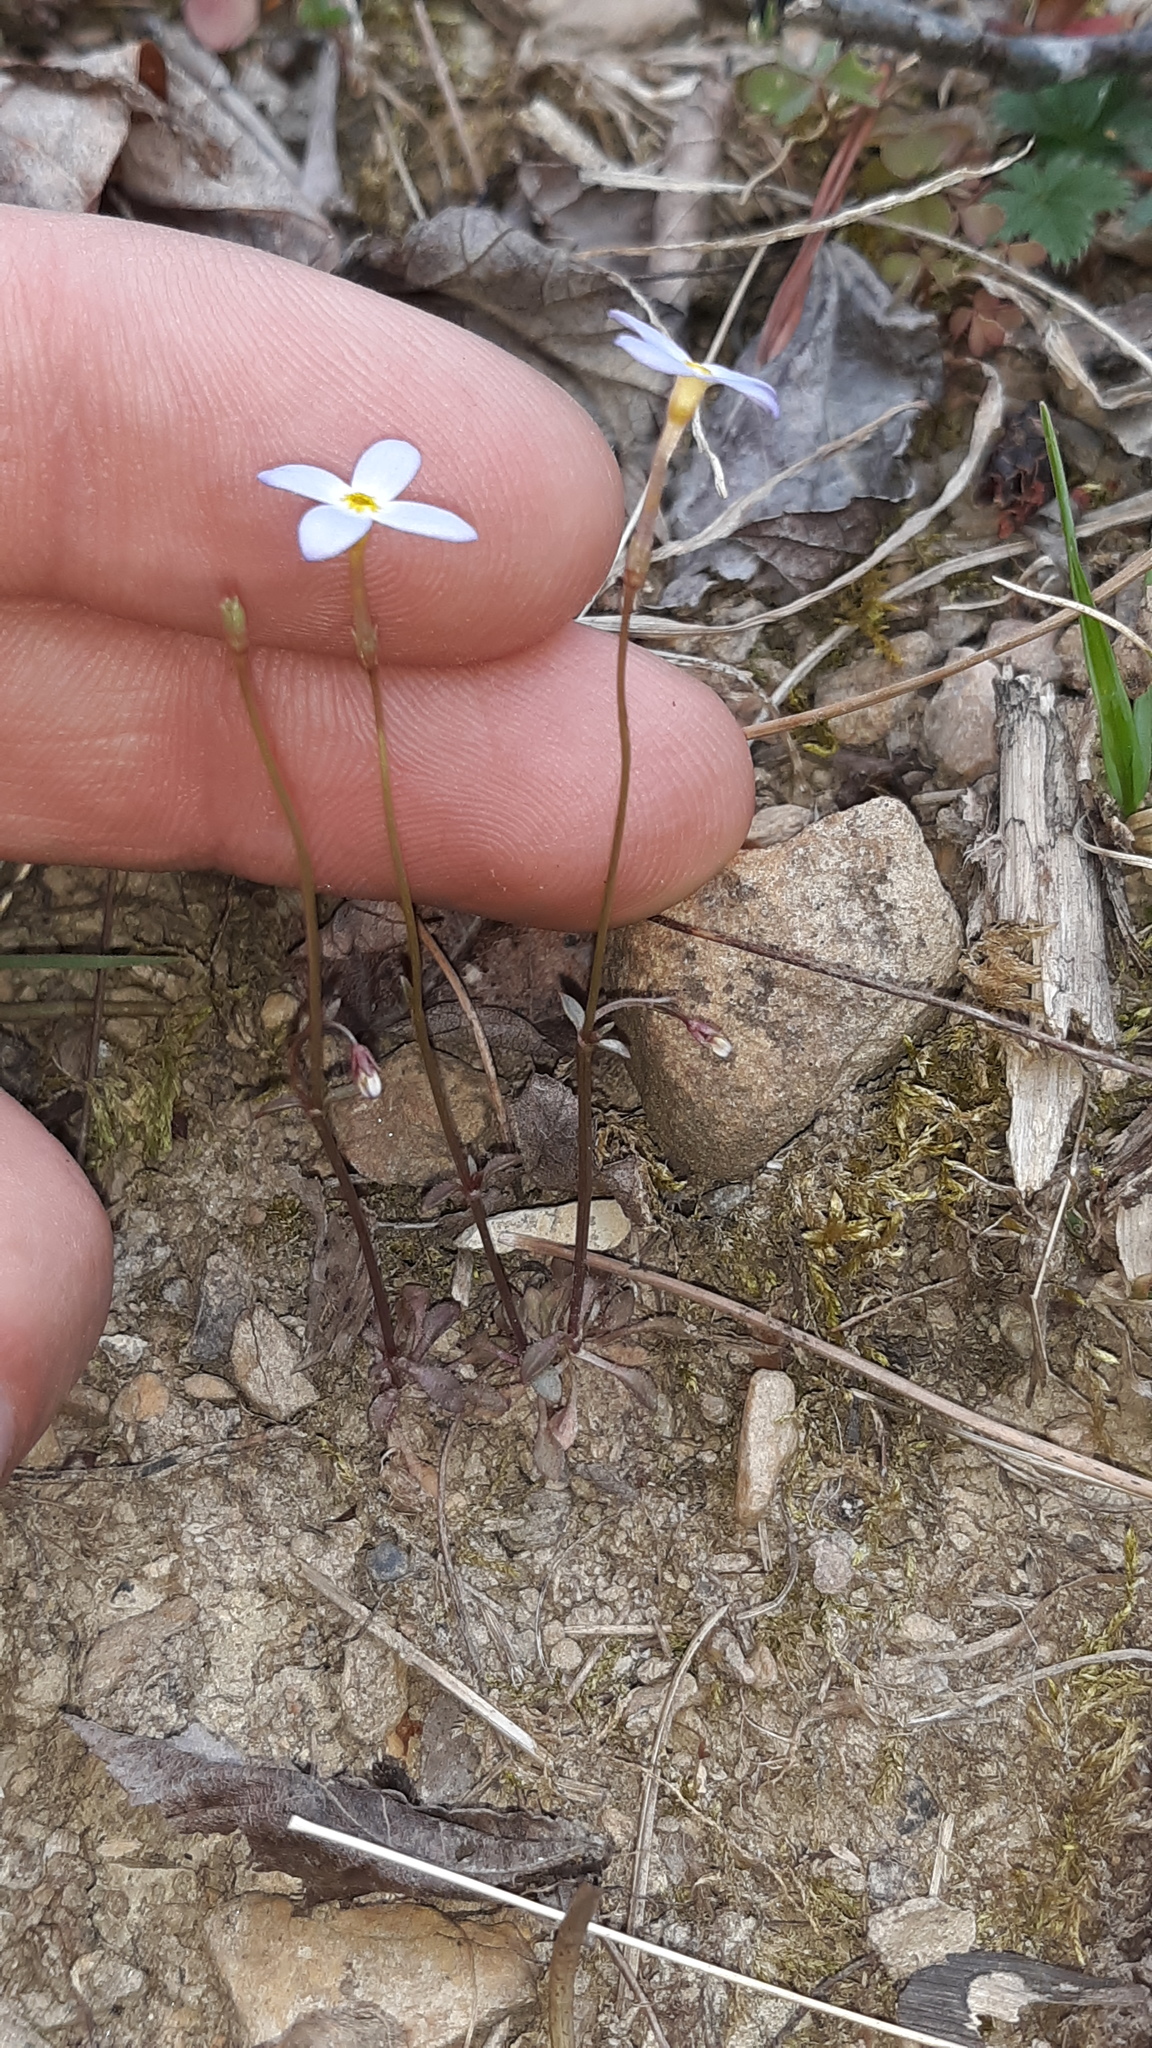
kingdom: Plantae
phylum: Tracheophyta
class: Magnoliopsida
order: Gentianales
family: Rubiaceae
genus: Houstonia
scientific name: Houstonia caerulea
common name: Bluets
